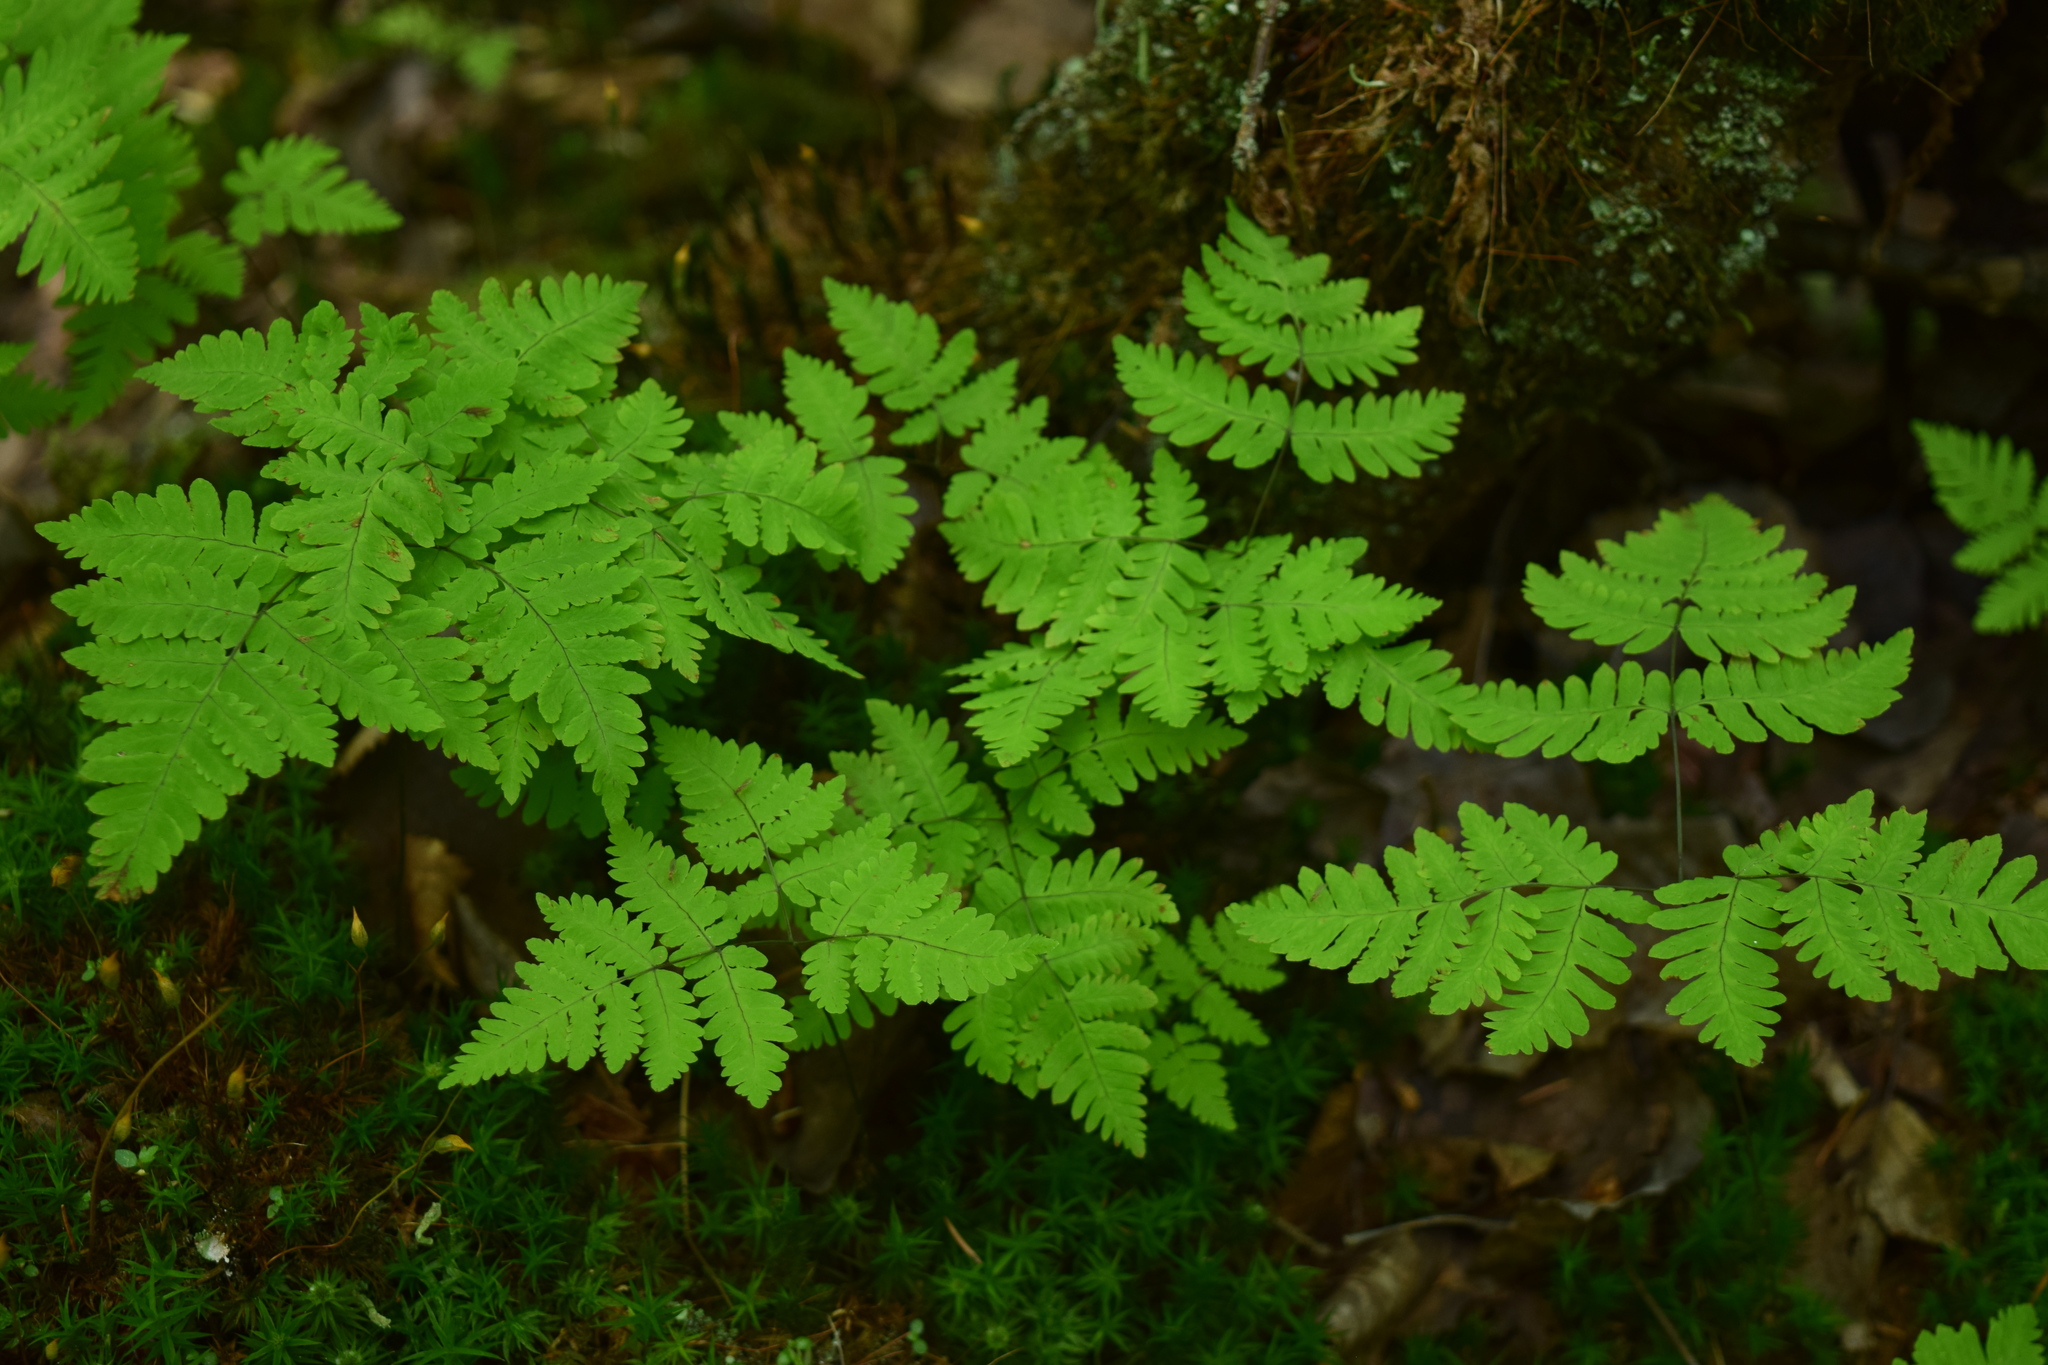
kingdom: Plantae
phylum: Tracheophyta
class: Polypodiopsida
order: Polypodiales
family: Cystopteridaceae
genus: Gymnocarpium
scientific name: Gymnocarpium dryopteris
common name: Oak fern
